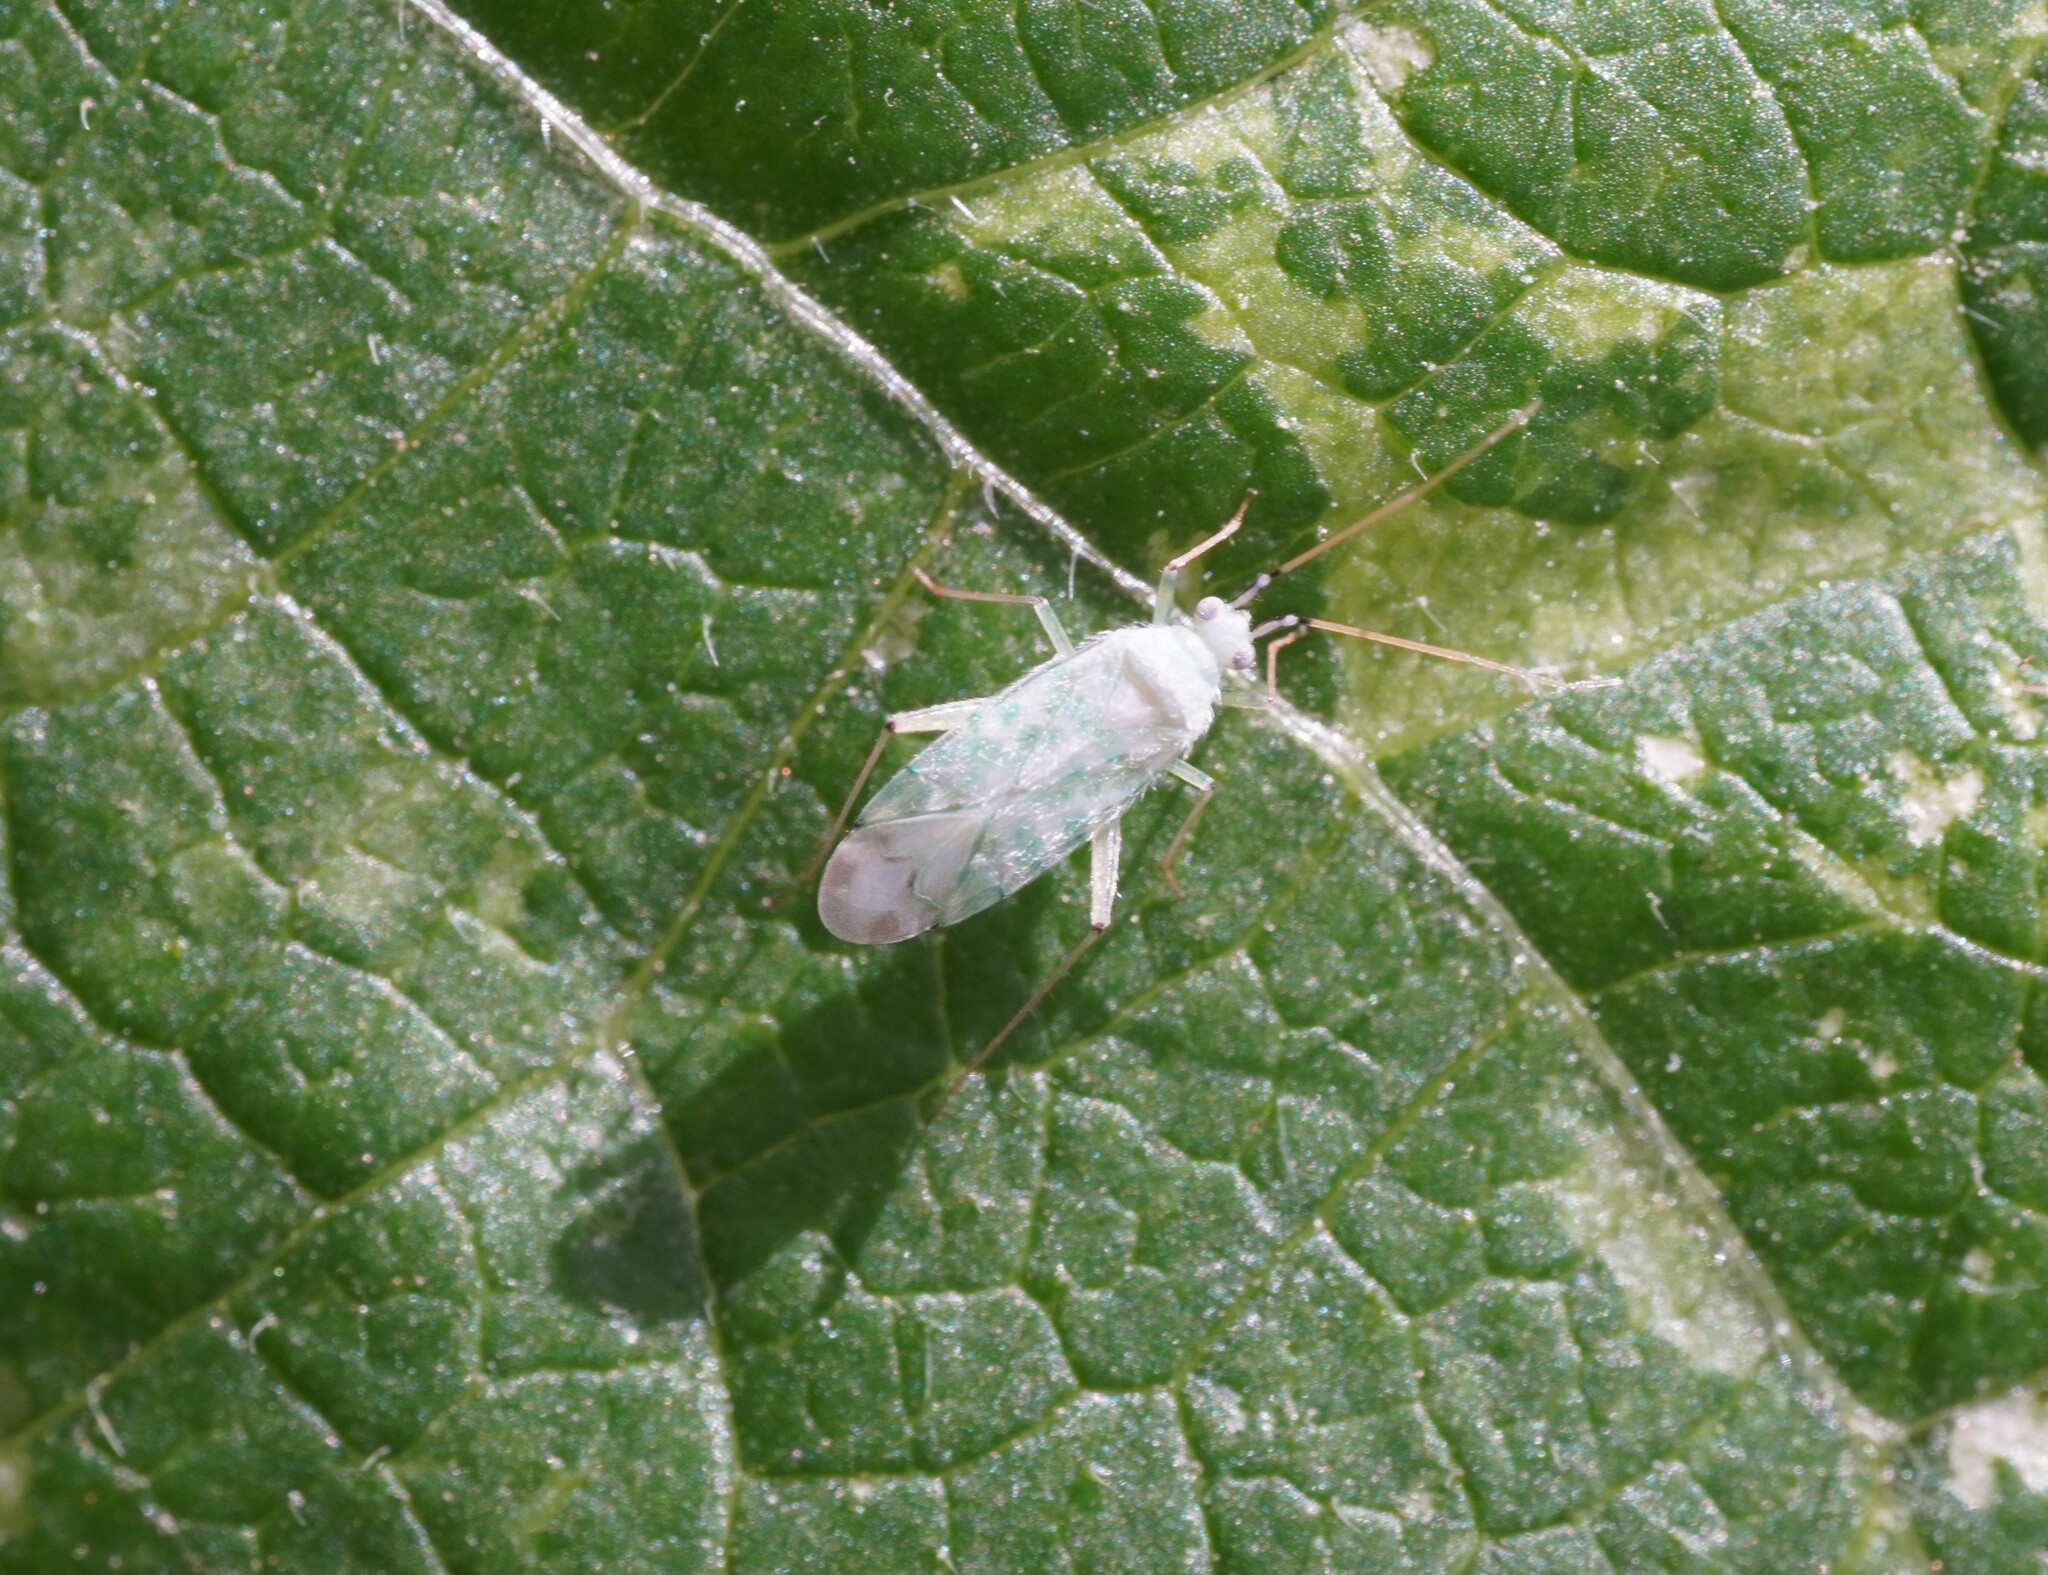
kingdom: Animalia
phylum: Arthropoda
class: Insecta
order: Hemiptera
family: Miridae
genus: Reuteria
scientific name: Reuteria marqueti
